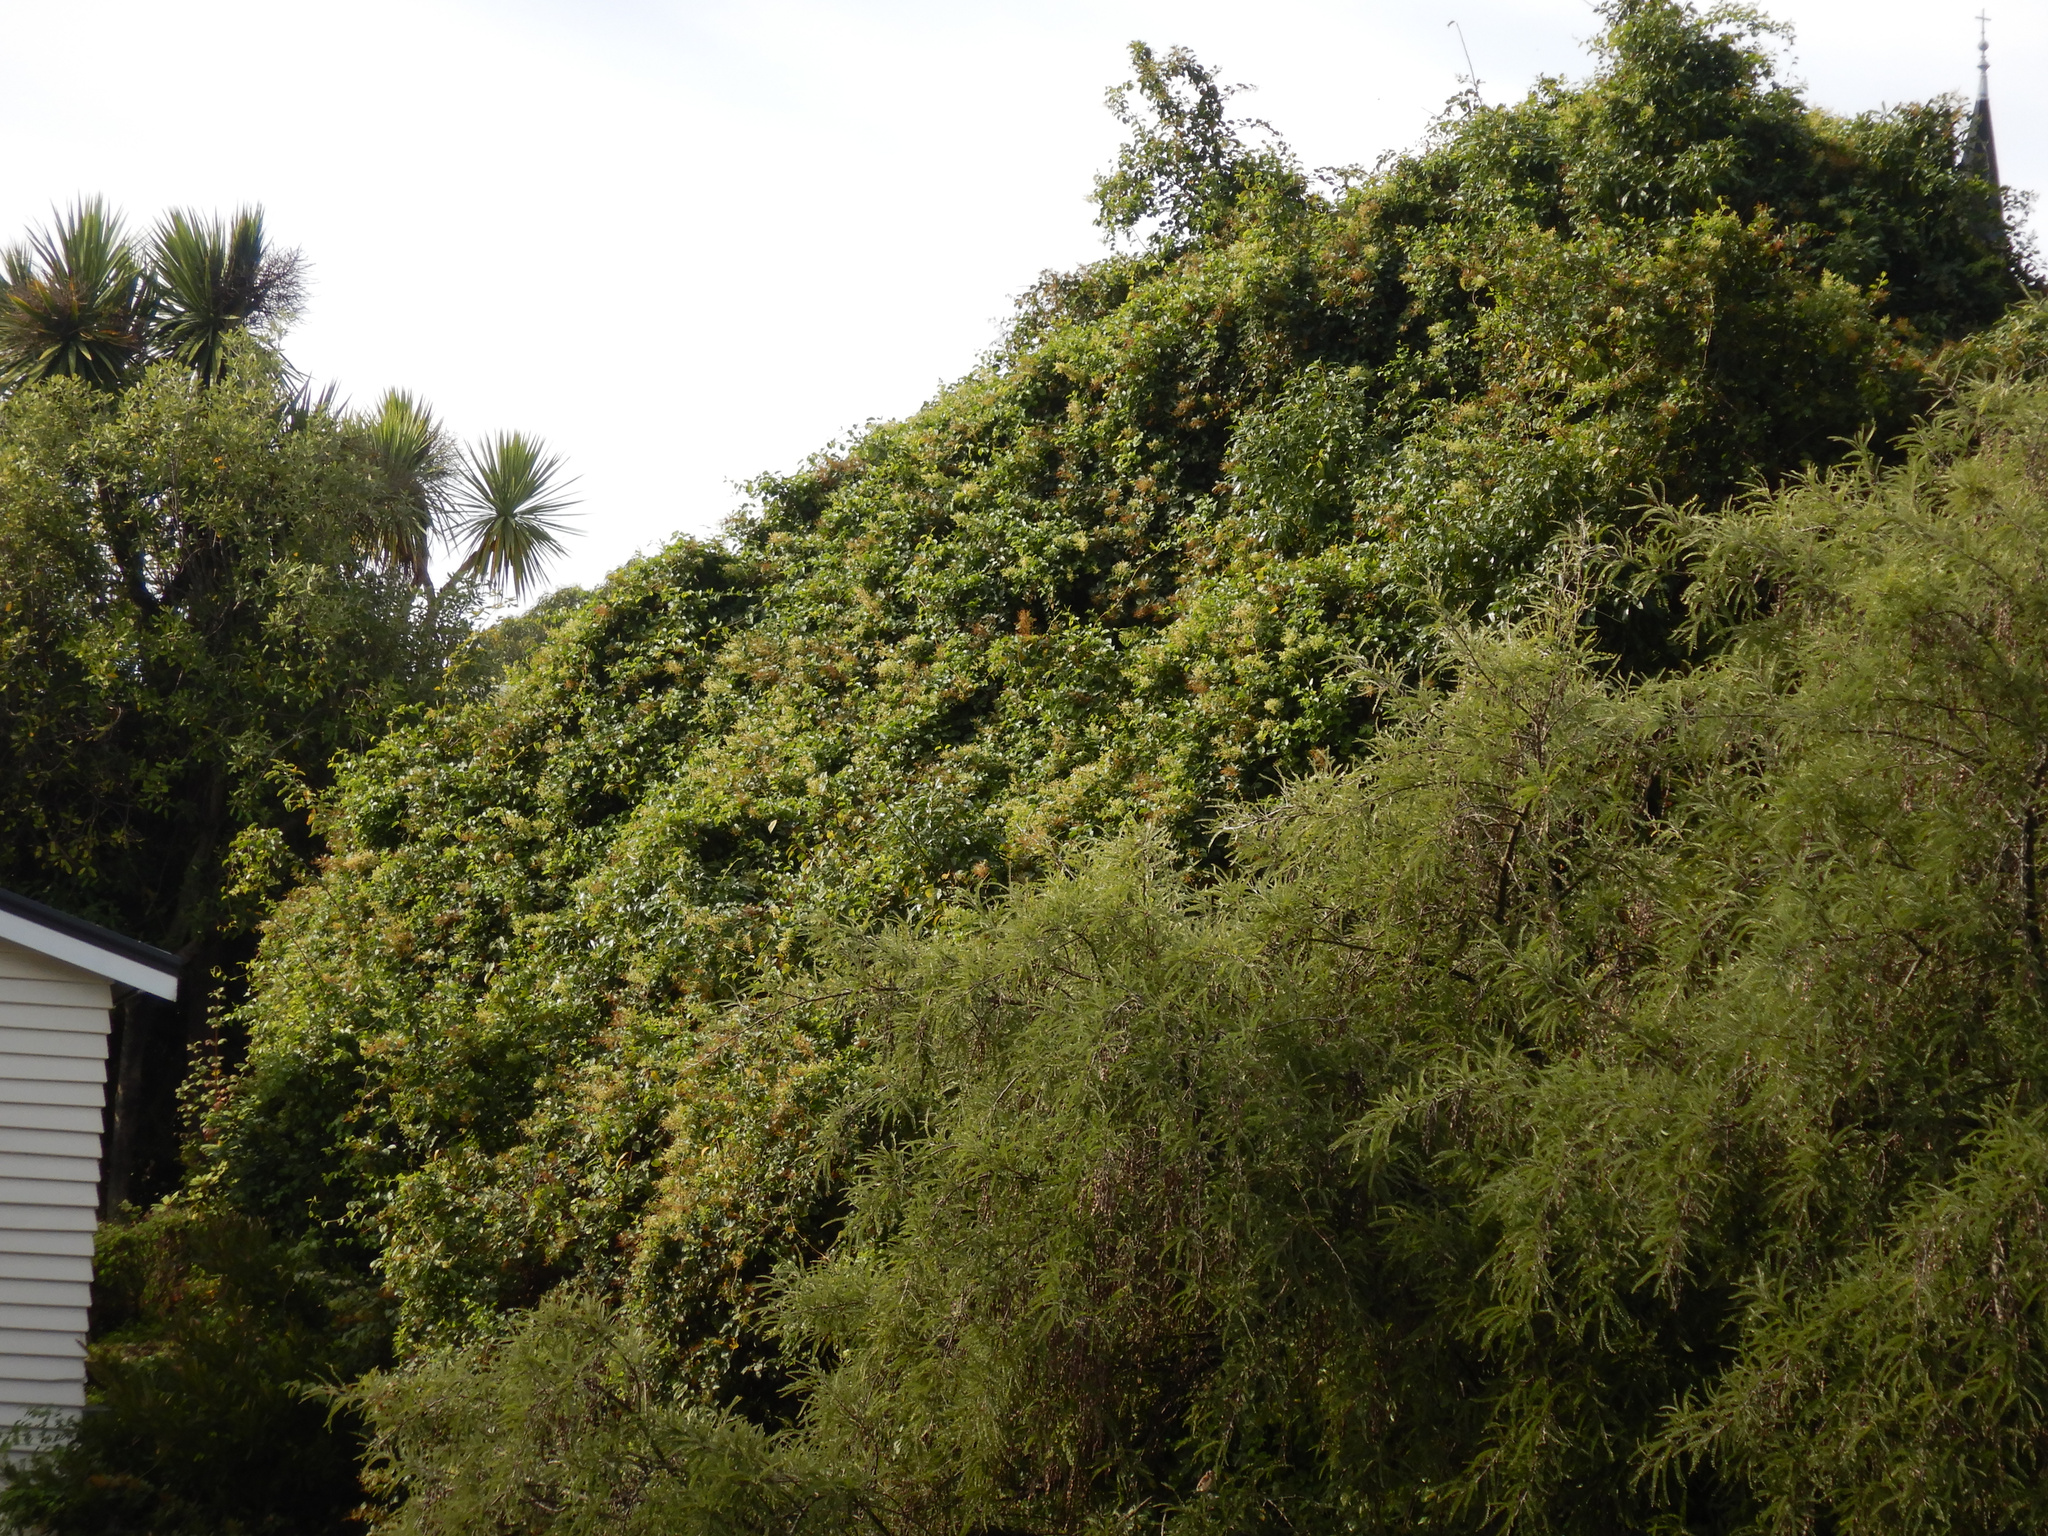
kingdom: Plantae
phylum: Tracheophyta
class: Magnoliopsida
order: Caryophyllales
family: Polygonaceae
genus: Muehlenbeckia
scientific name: Muehlenbeckia australis
